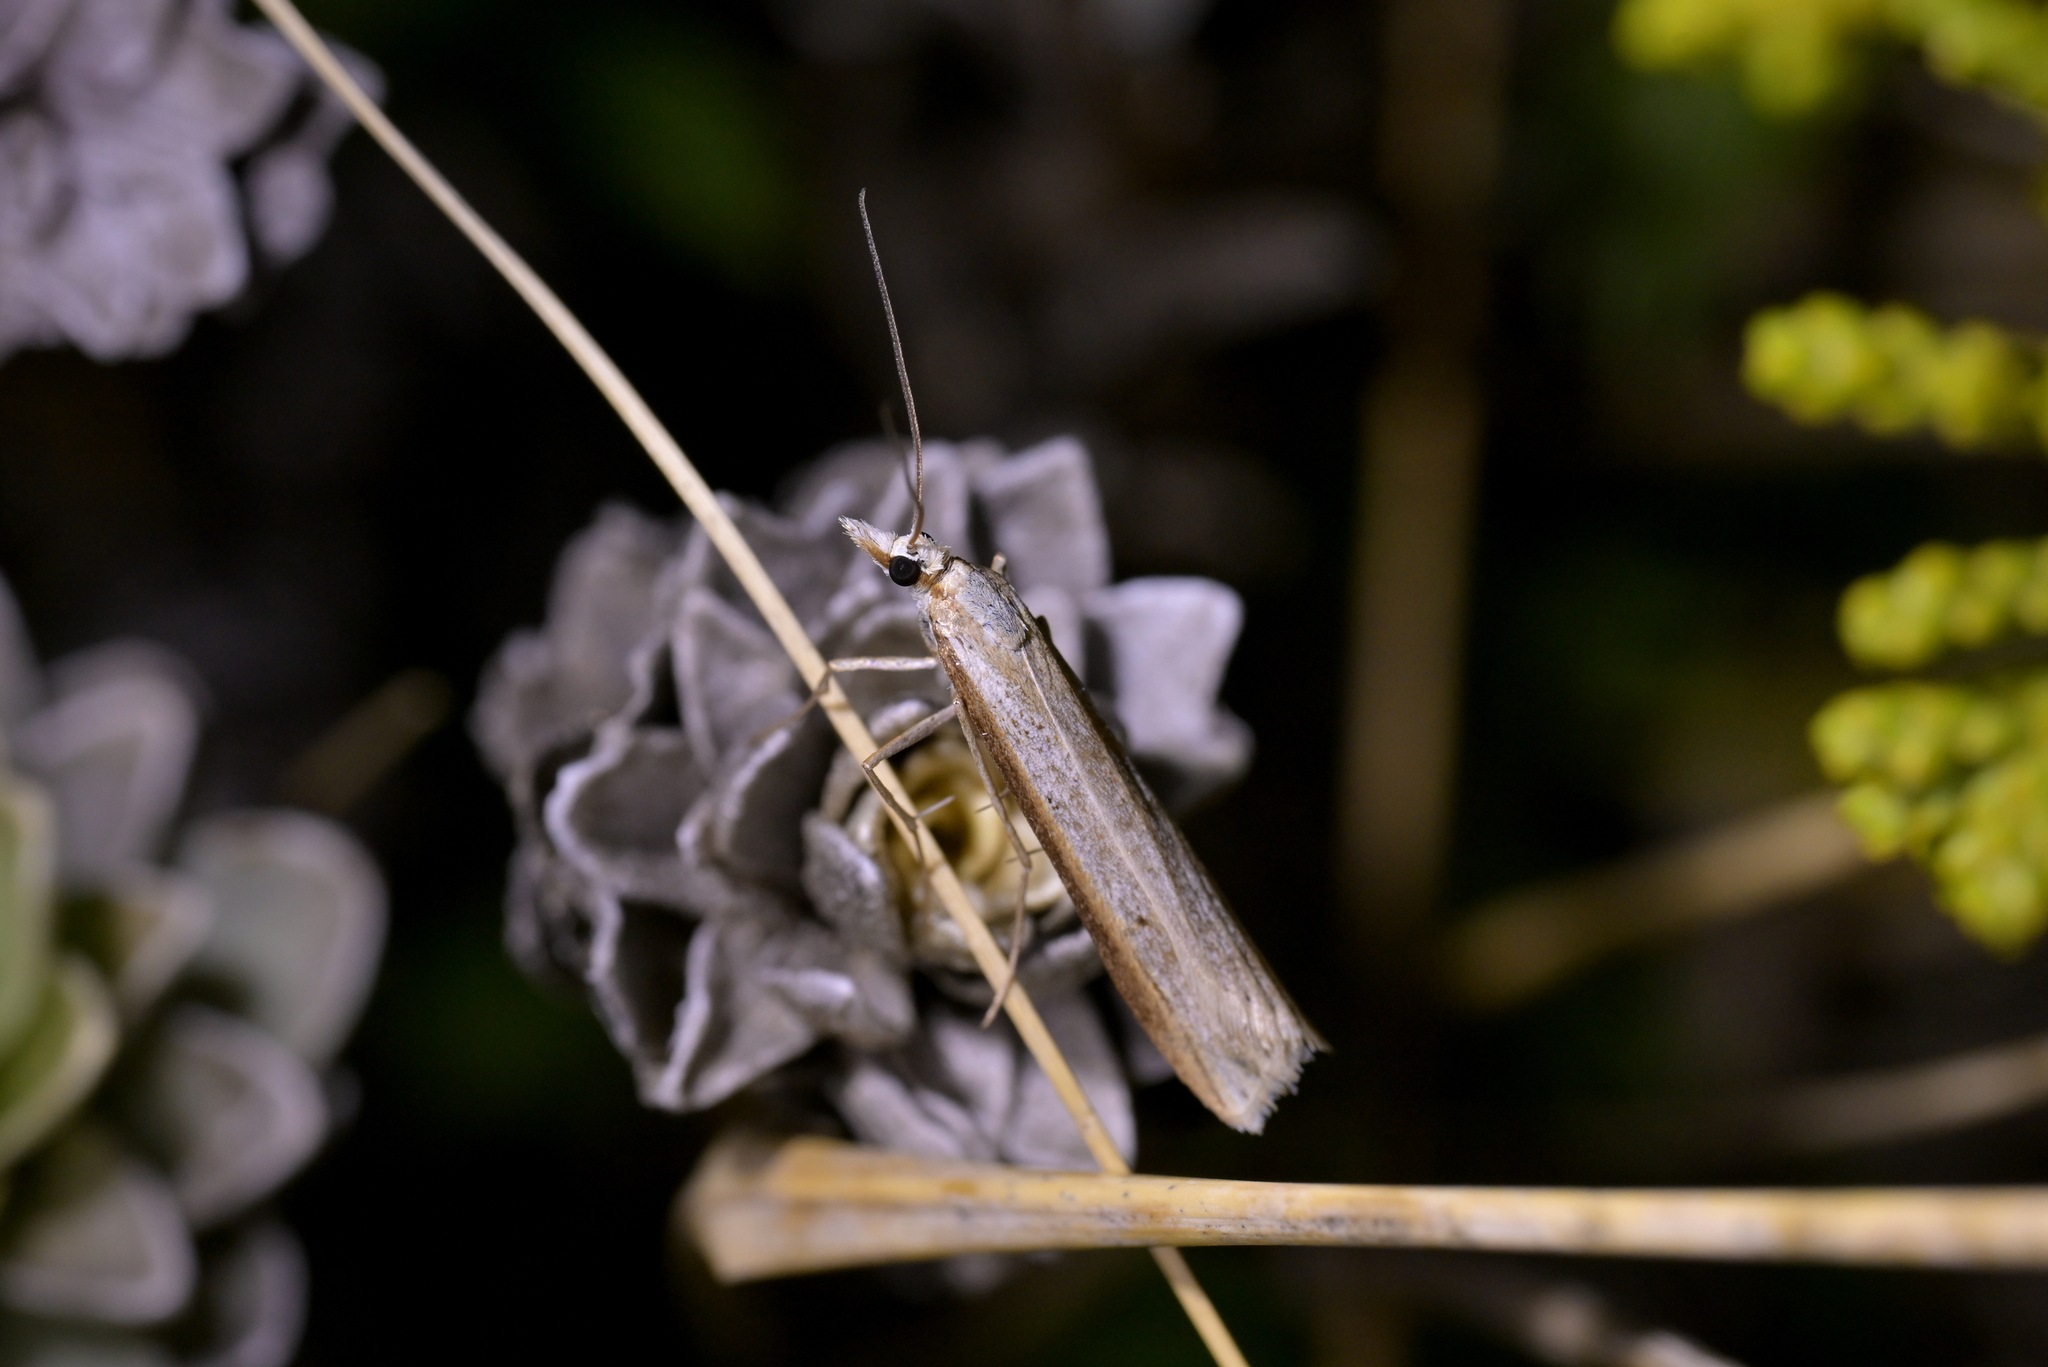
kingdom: Animalia
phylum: Arthropoda
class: Insecta
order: Lepidoptera
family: Crambidae
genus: Scoparia
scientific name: Scoparia niphospora
